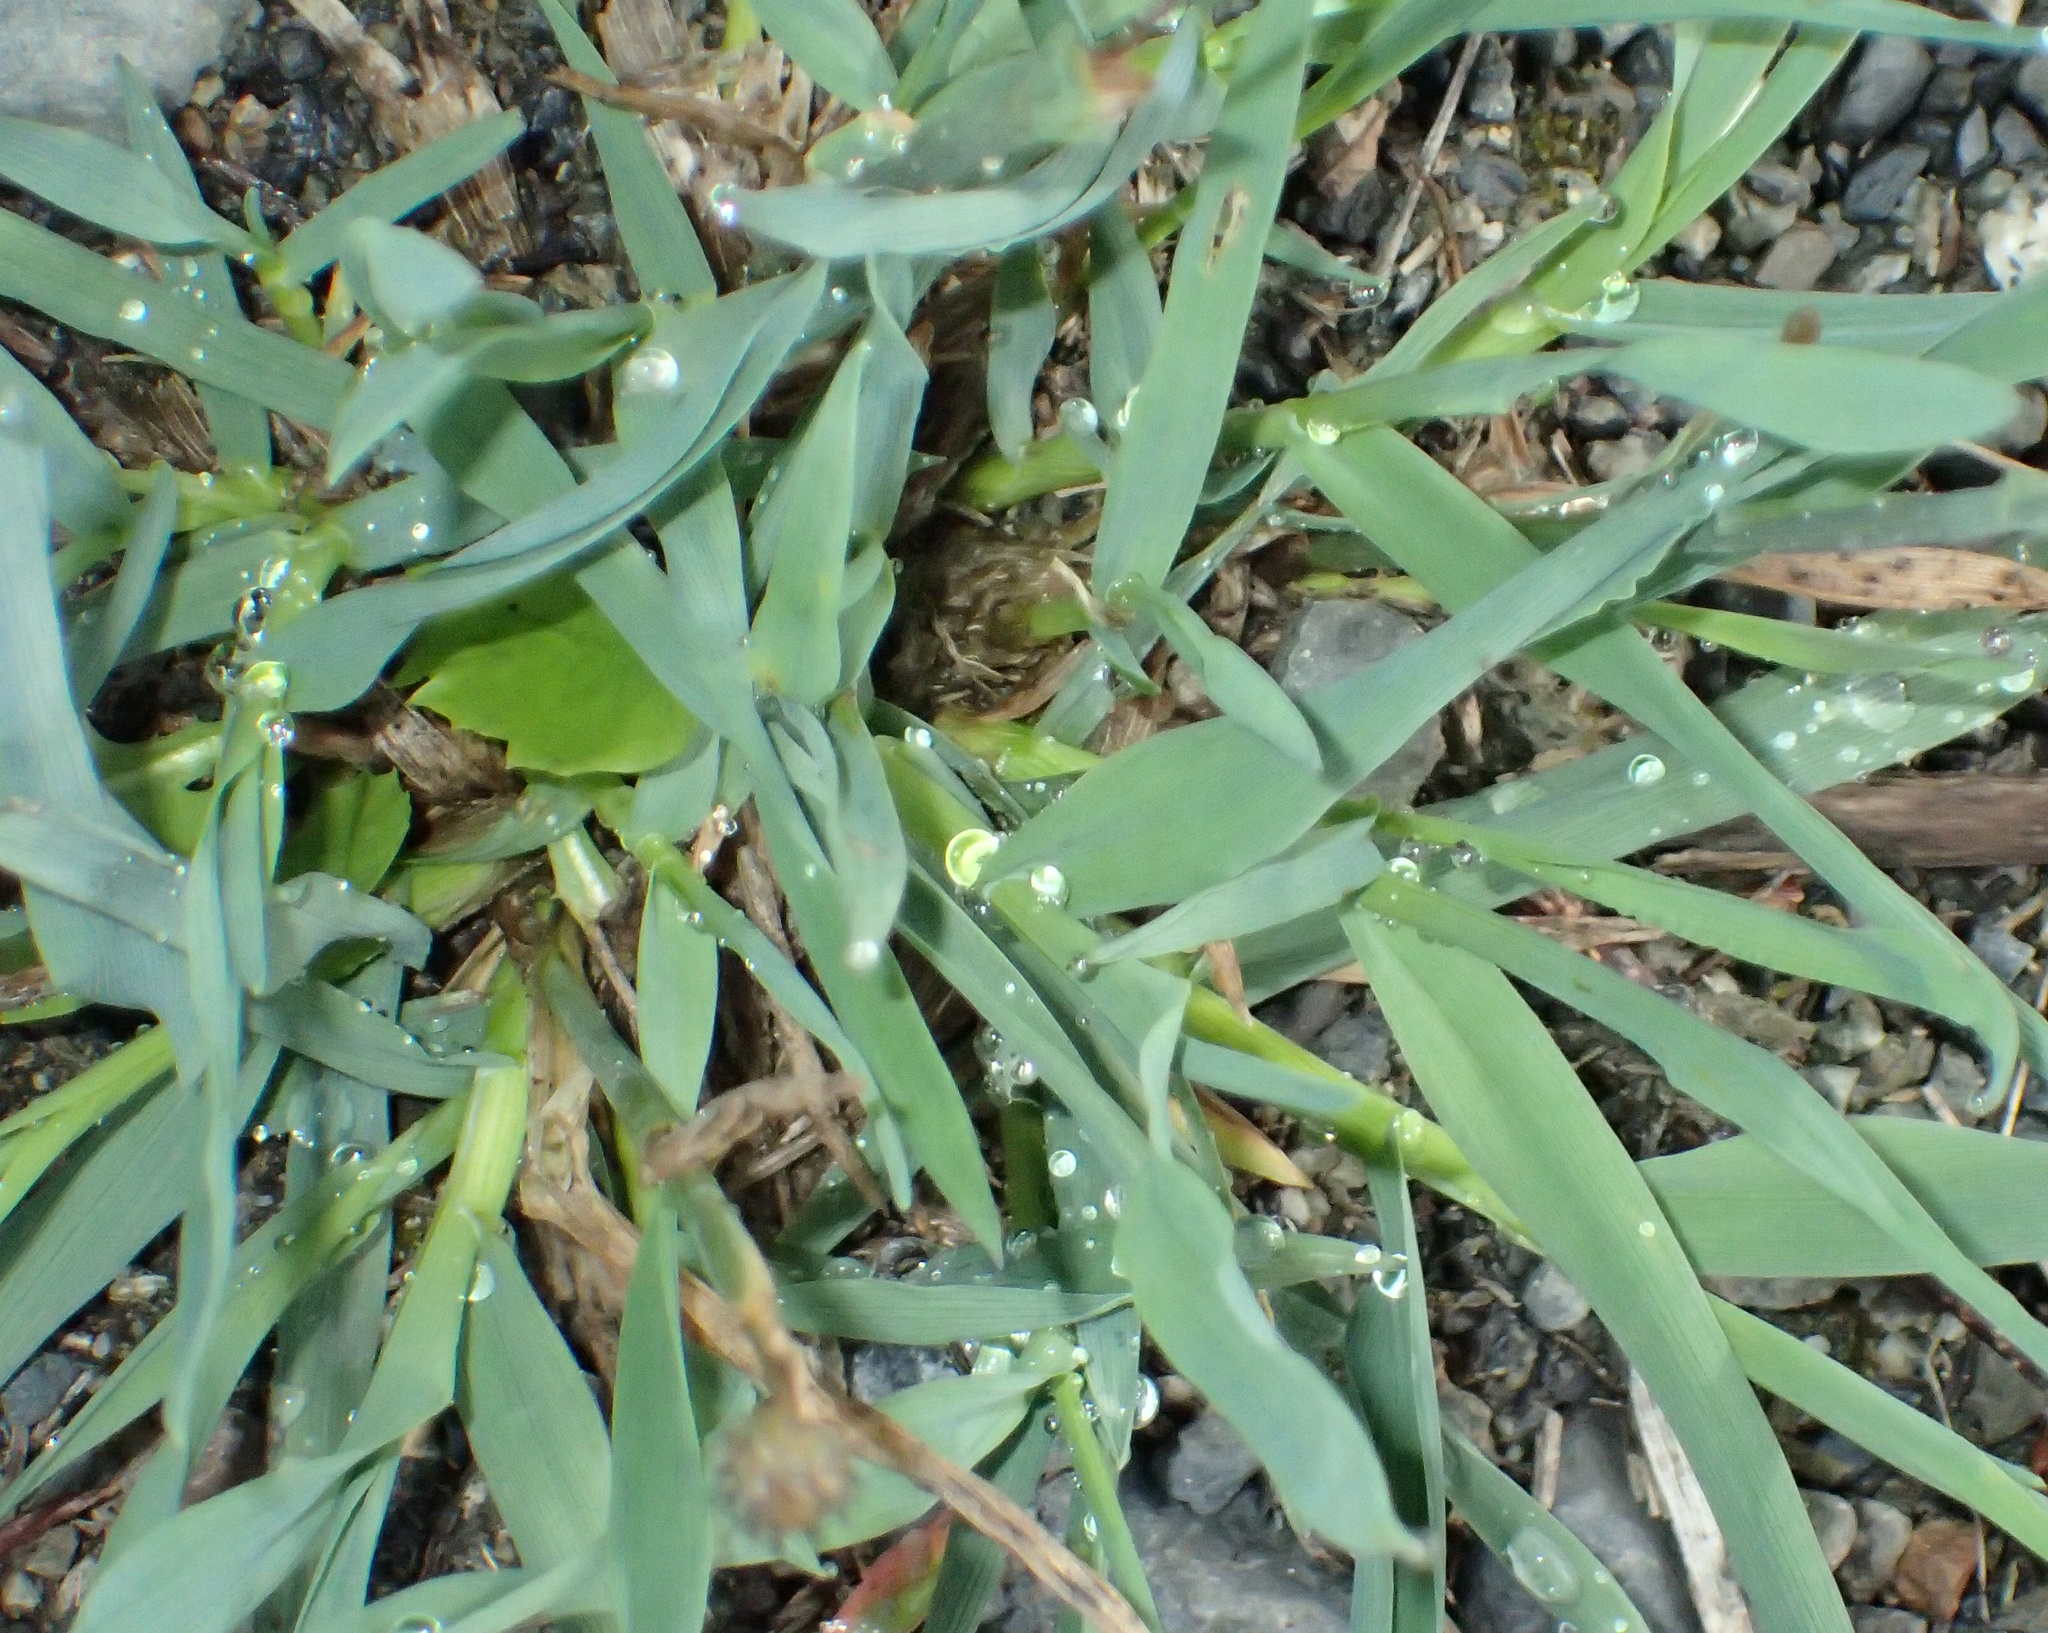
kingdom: Plantae
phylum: Tracheophyta
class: Liliopsida
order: Poales
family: Poaceae
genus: Phleum
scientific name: Phleum alpinum
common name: Alpine cat's-tail
